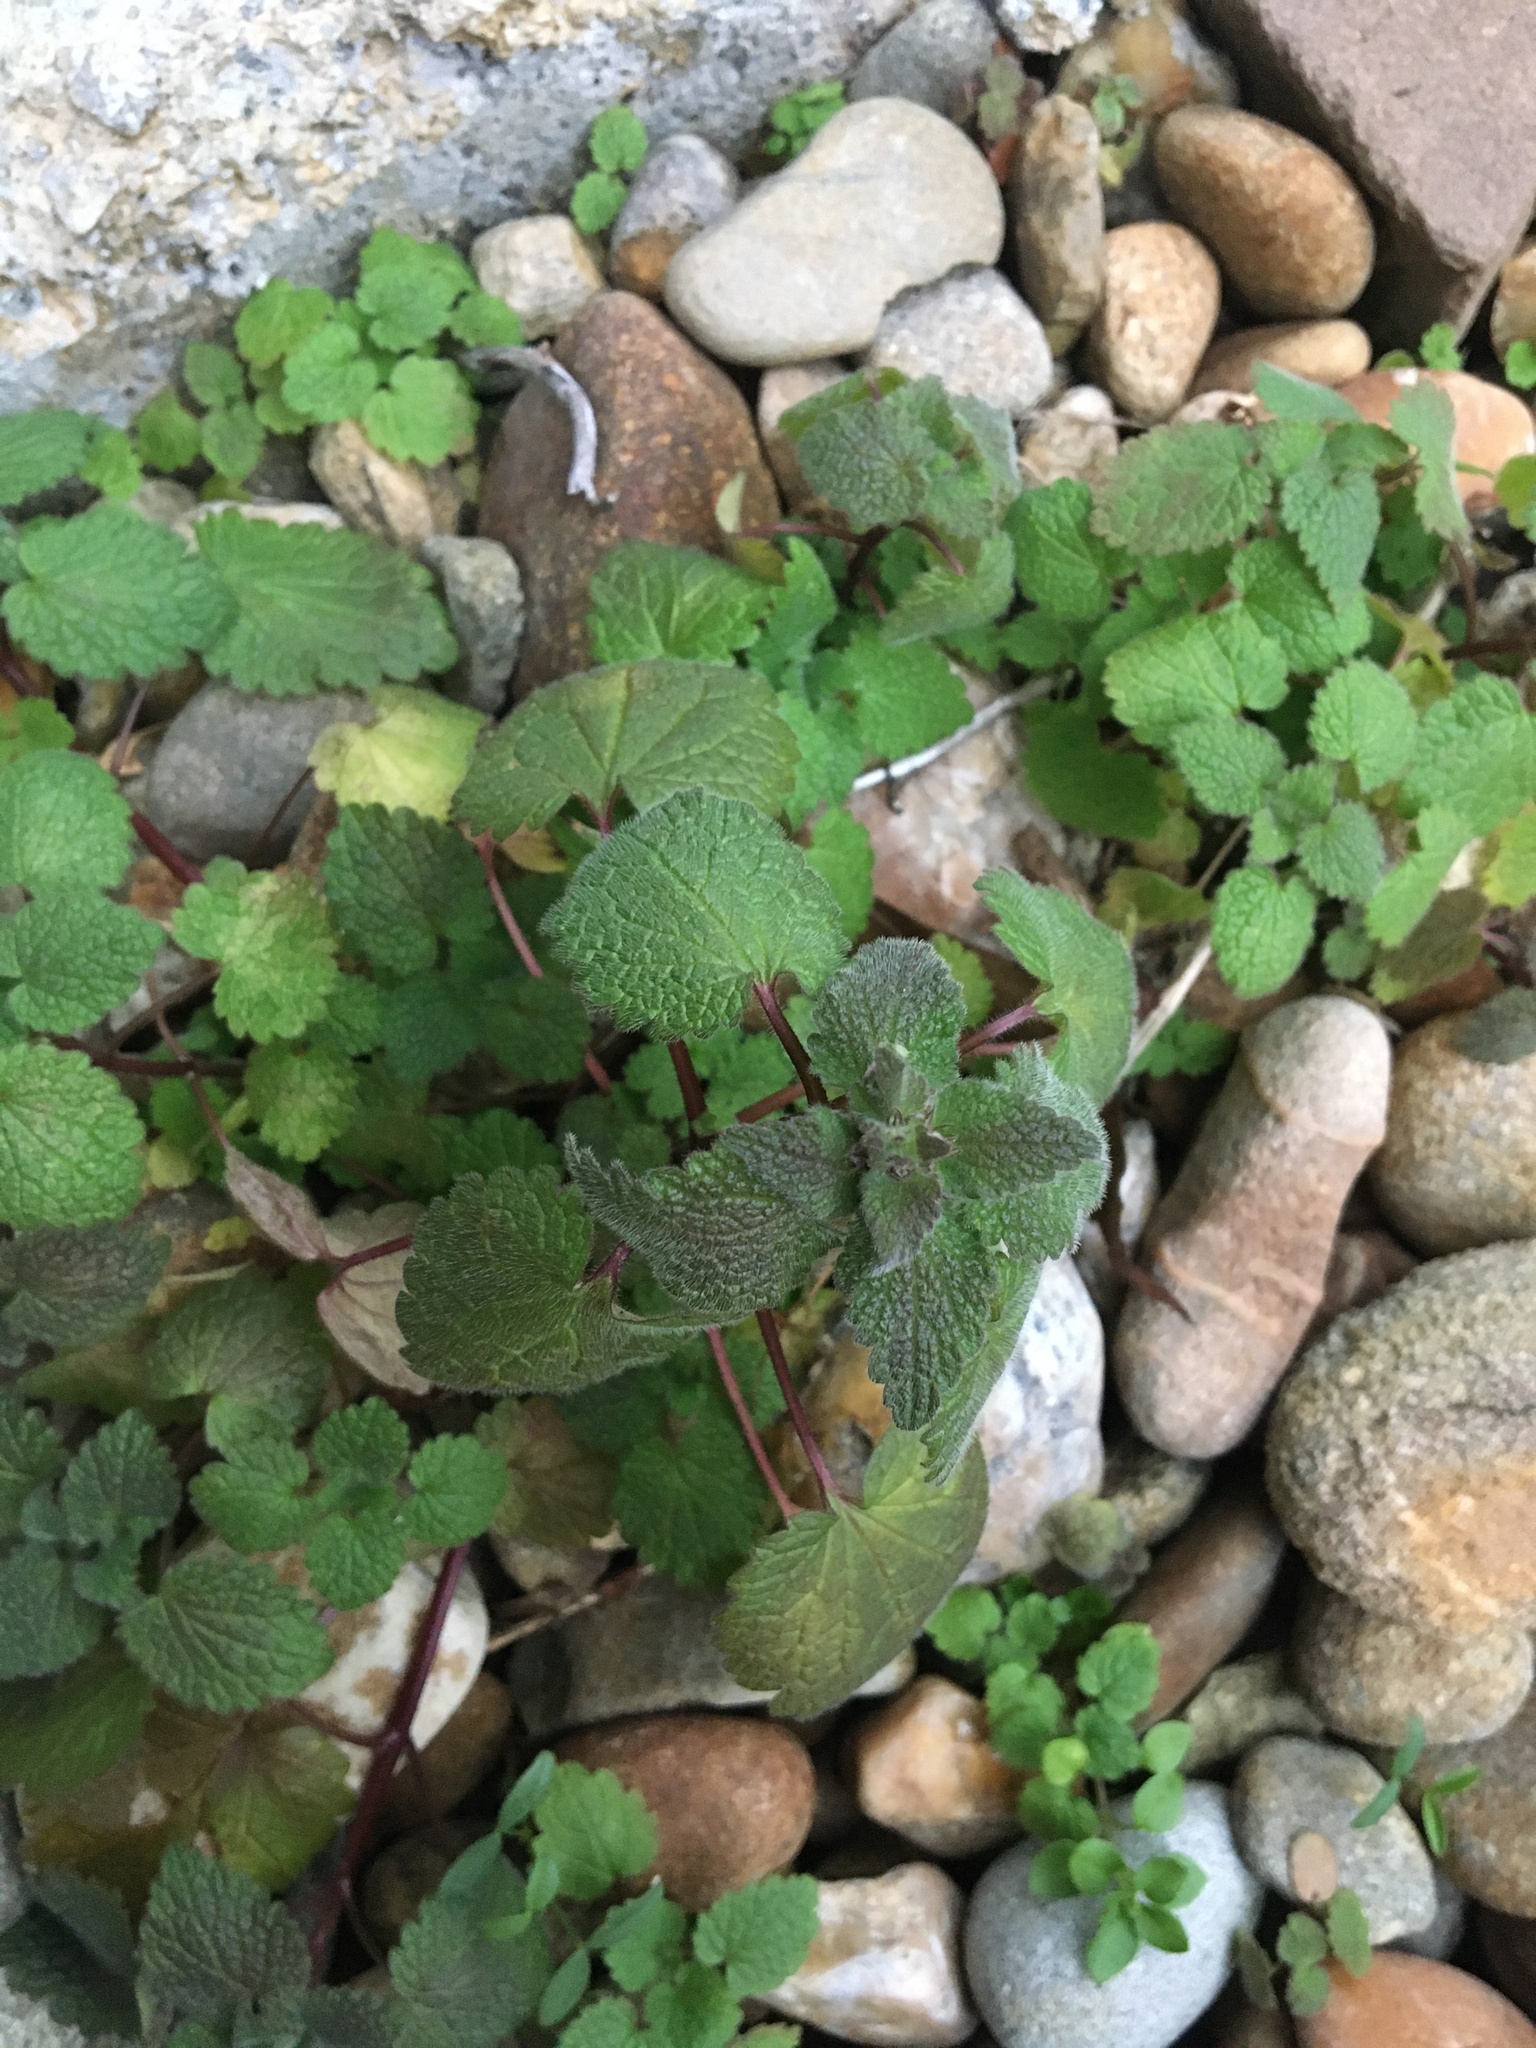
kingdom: Plantae
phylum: Tracheophyta
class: Magnoliopsida
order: Lamiales
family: Lamiaceae
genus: Lamium
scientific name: Lamium purpureum
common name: Red dead-nettle
